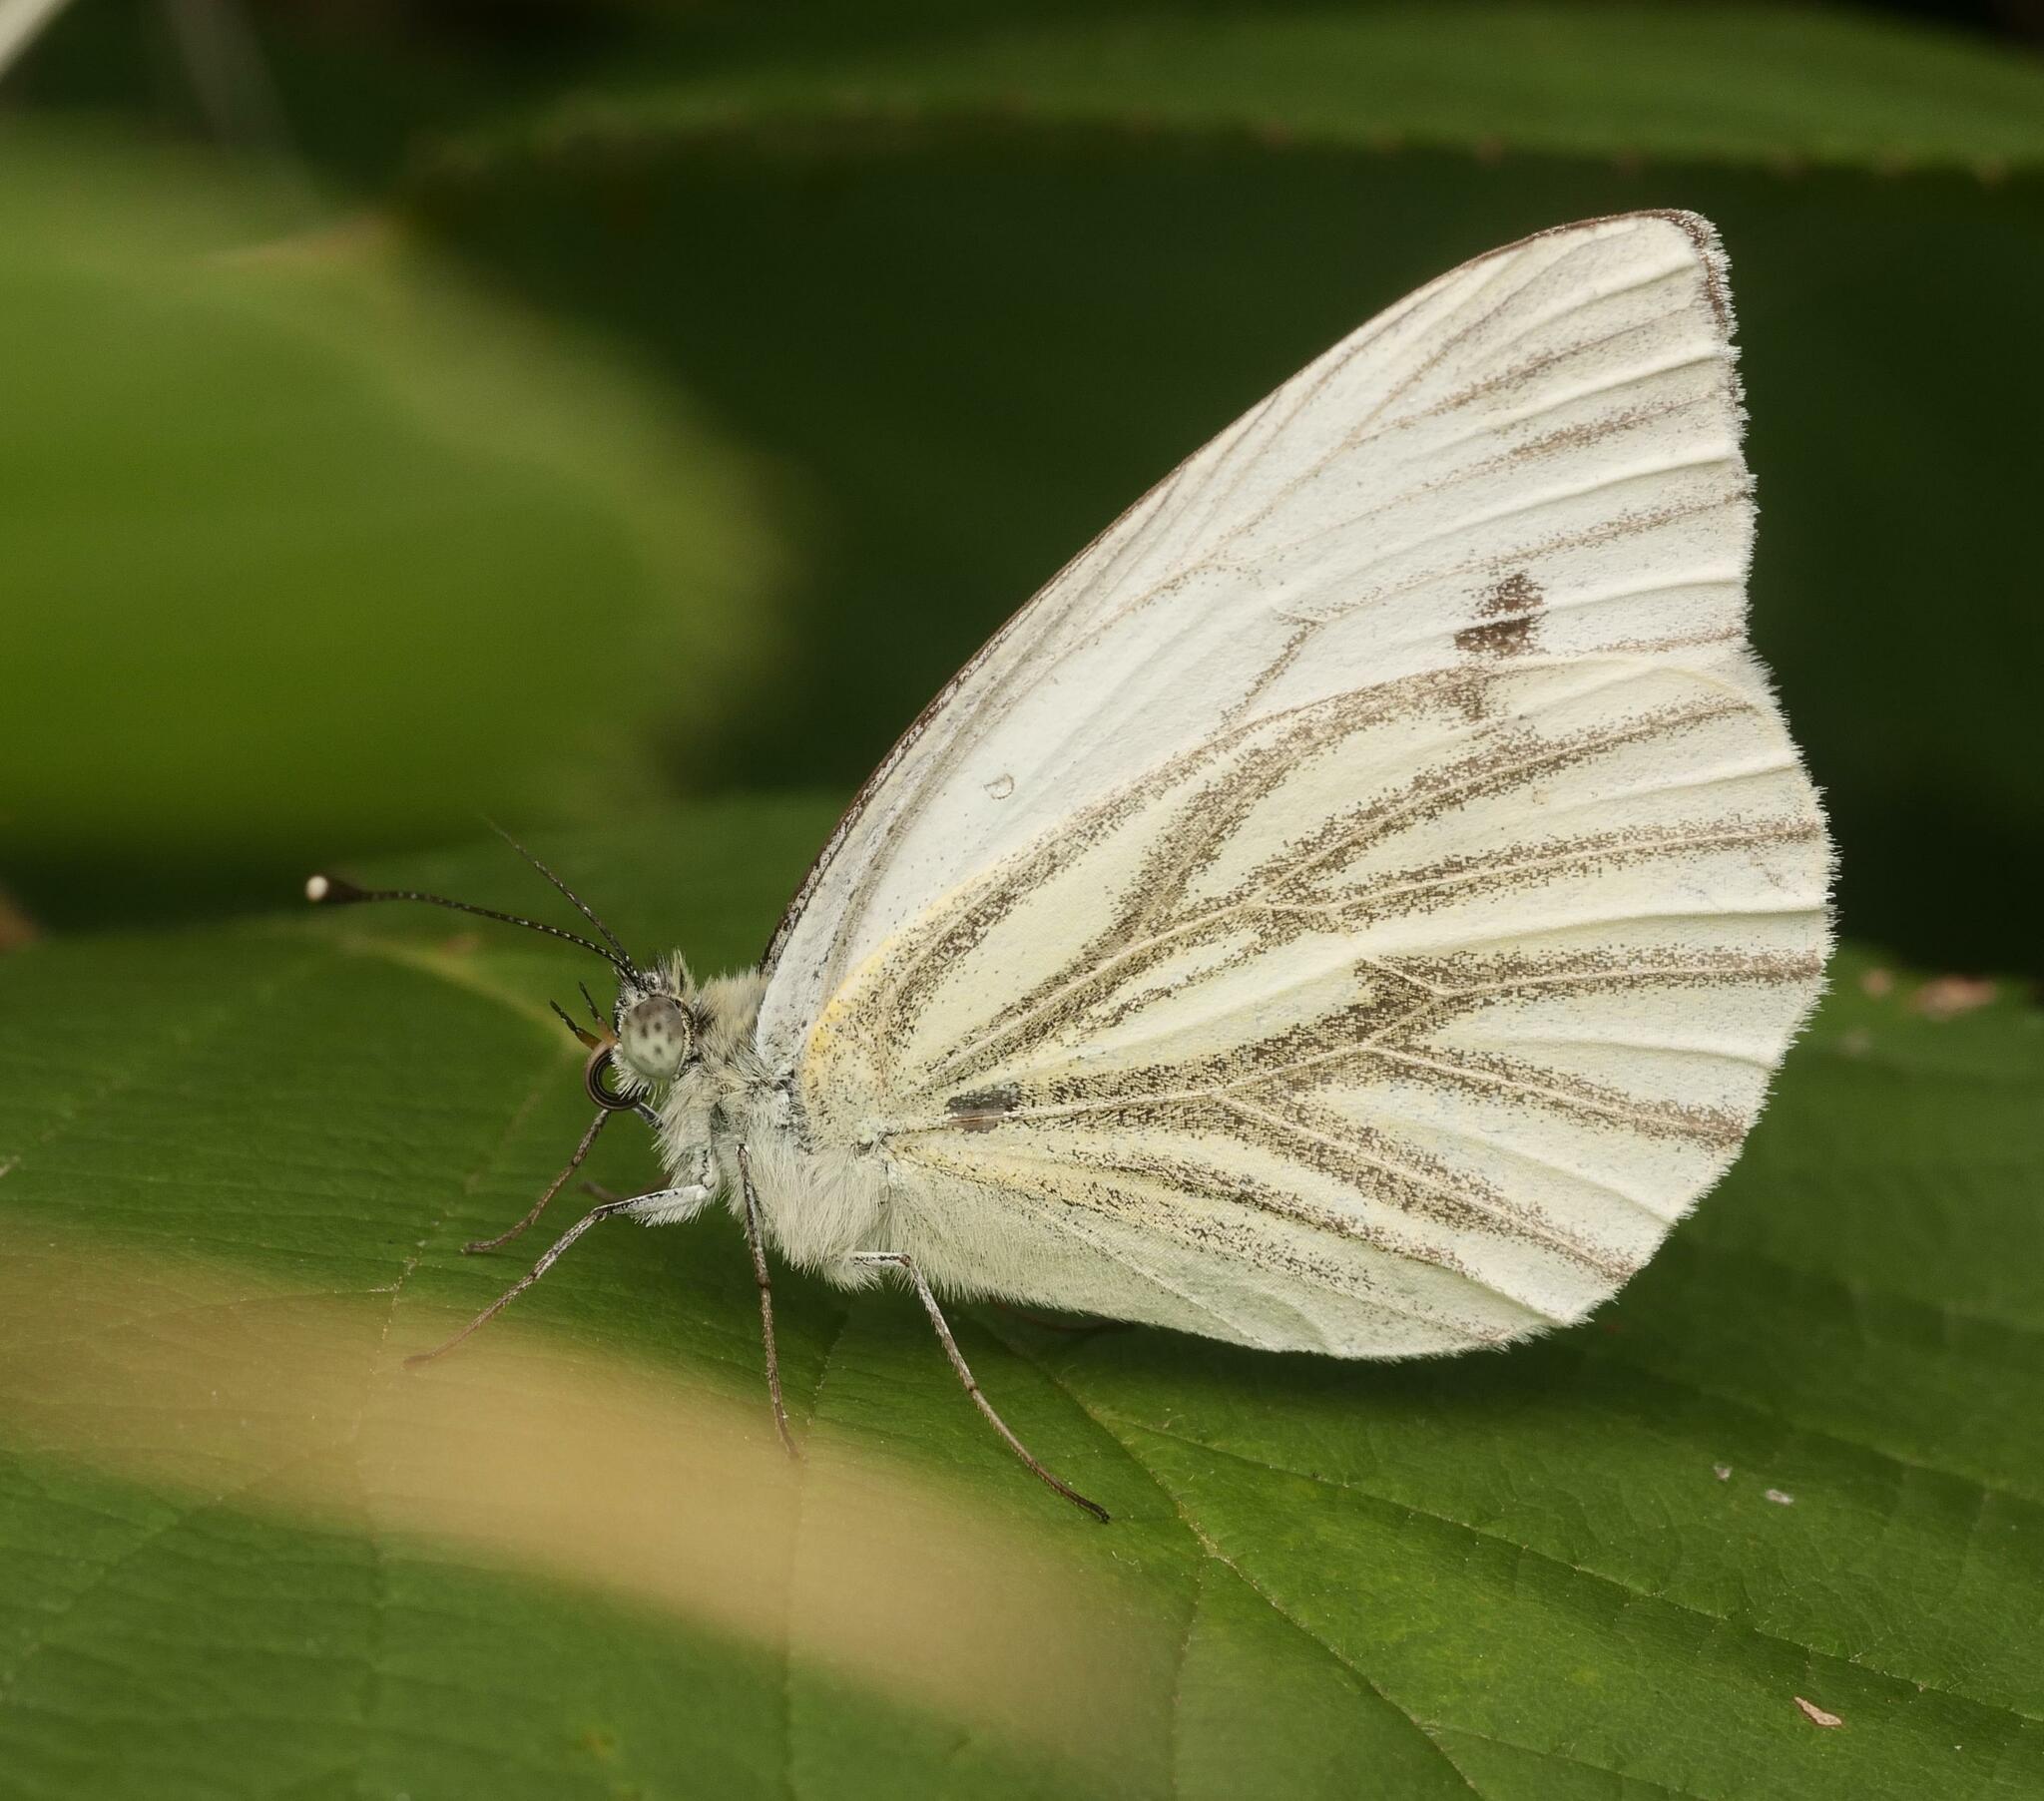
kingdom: Animalia
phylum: Arthropoda
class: Insecta
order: Lepidoptera
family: Pieridae
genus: Pieris
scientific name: Pieris napi
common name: Green-veined white
